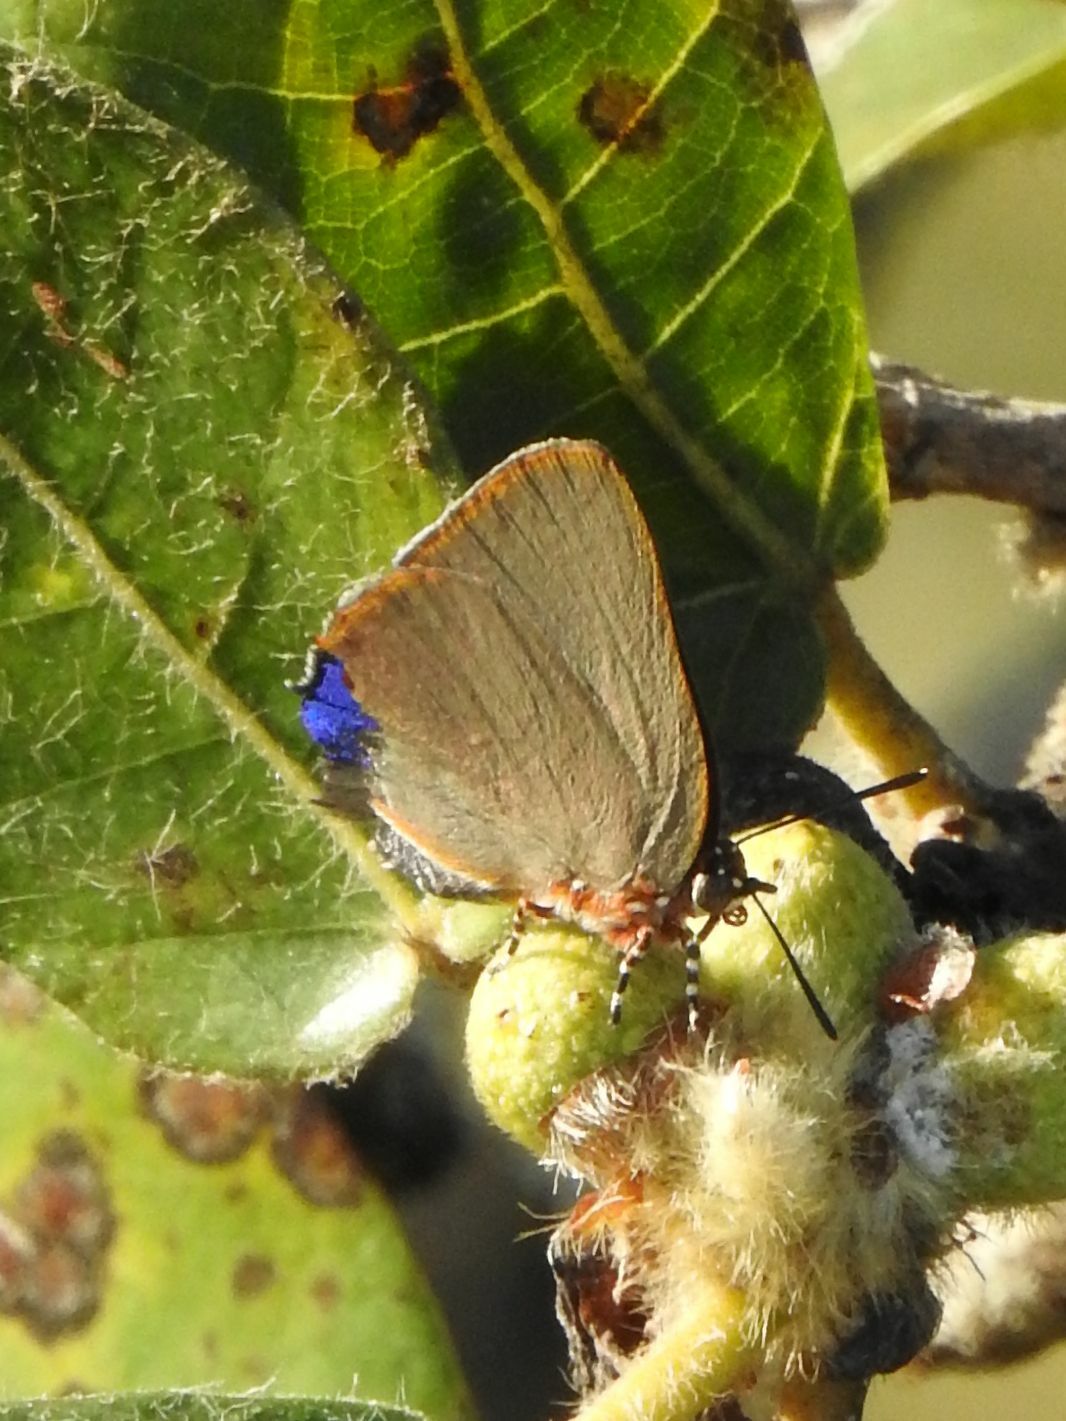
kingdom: Animalia
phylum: Arthropoda
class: Insecta
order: Lepidoptera
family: Lycaenidae
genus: Myrina
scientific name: Myrina dermaptera
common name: Lesser fig-tree blue
